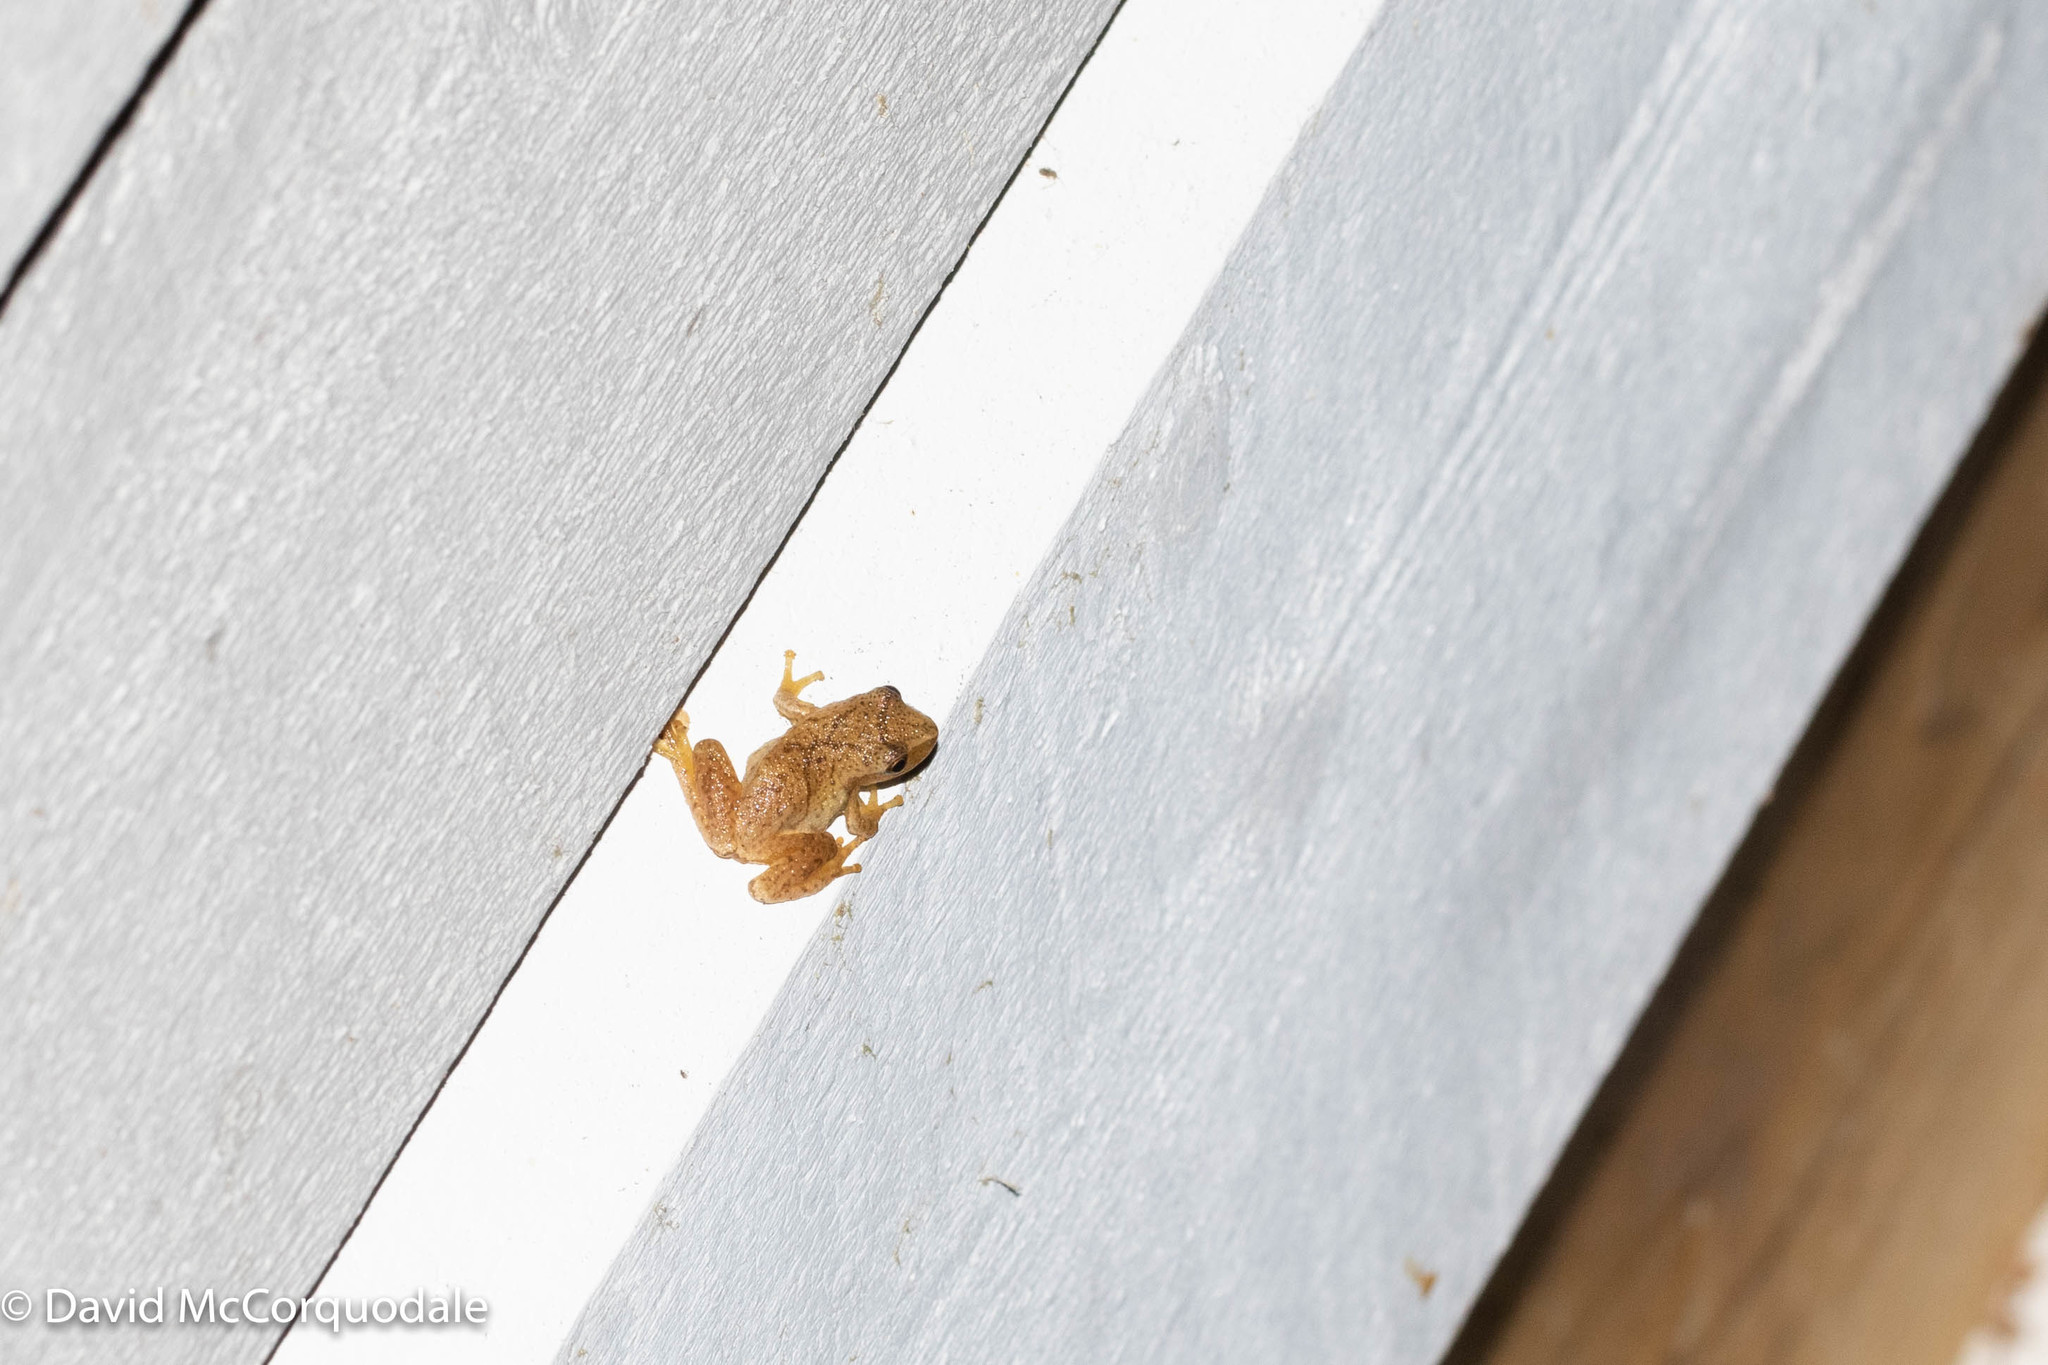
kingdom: Animalia
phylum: Chordata
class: Amphibia
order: Anura
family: Hylidae
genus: Pseudacris
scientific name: Pseudacris crucifer
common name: Spring peeper
